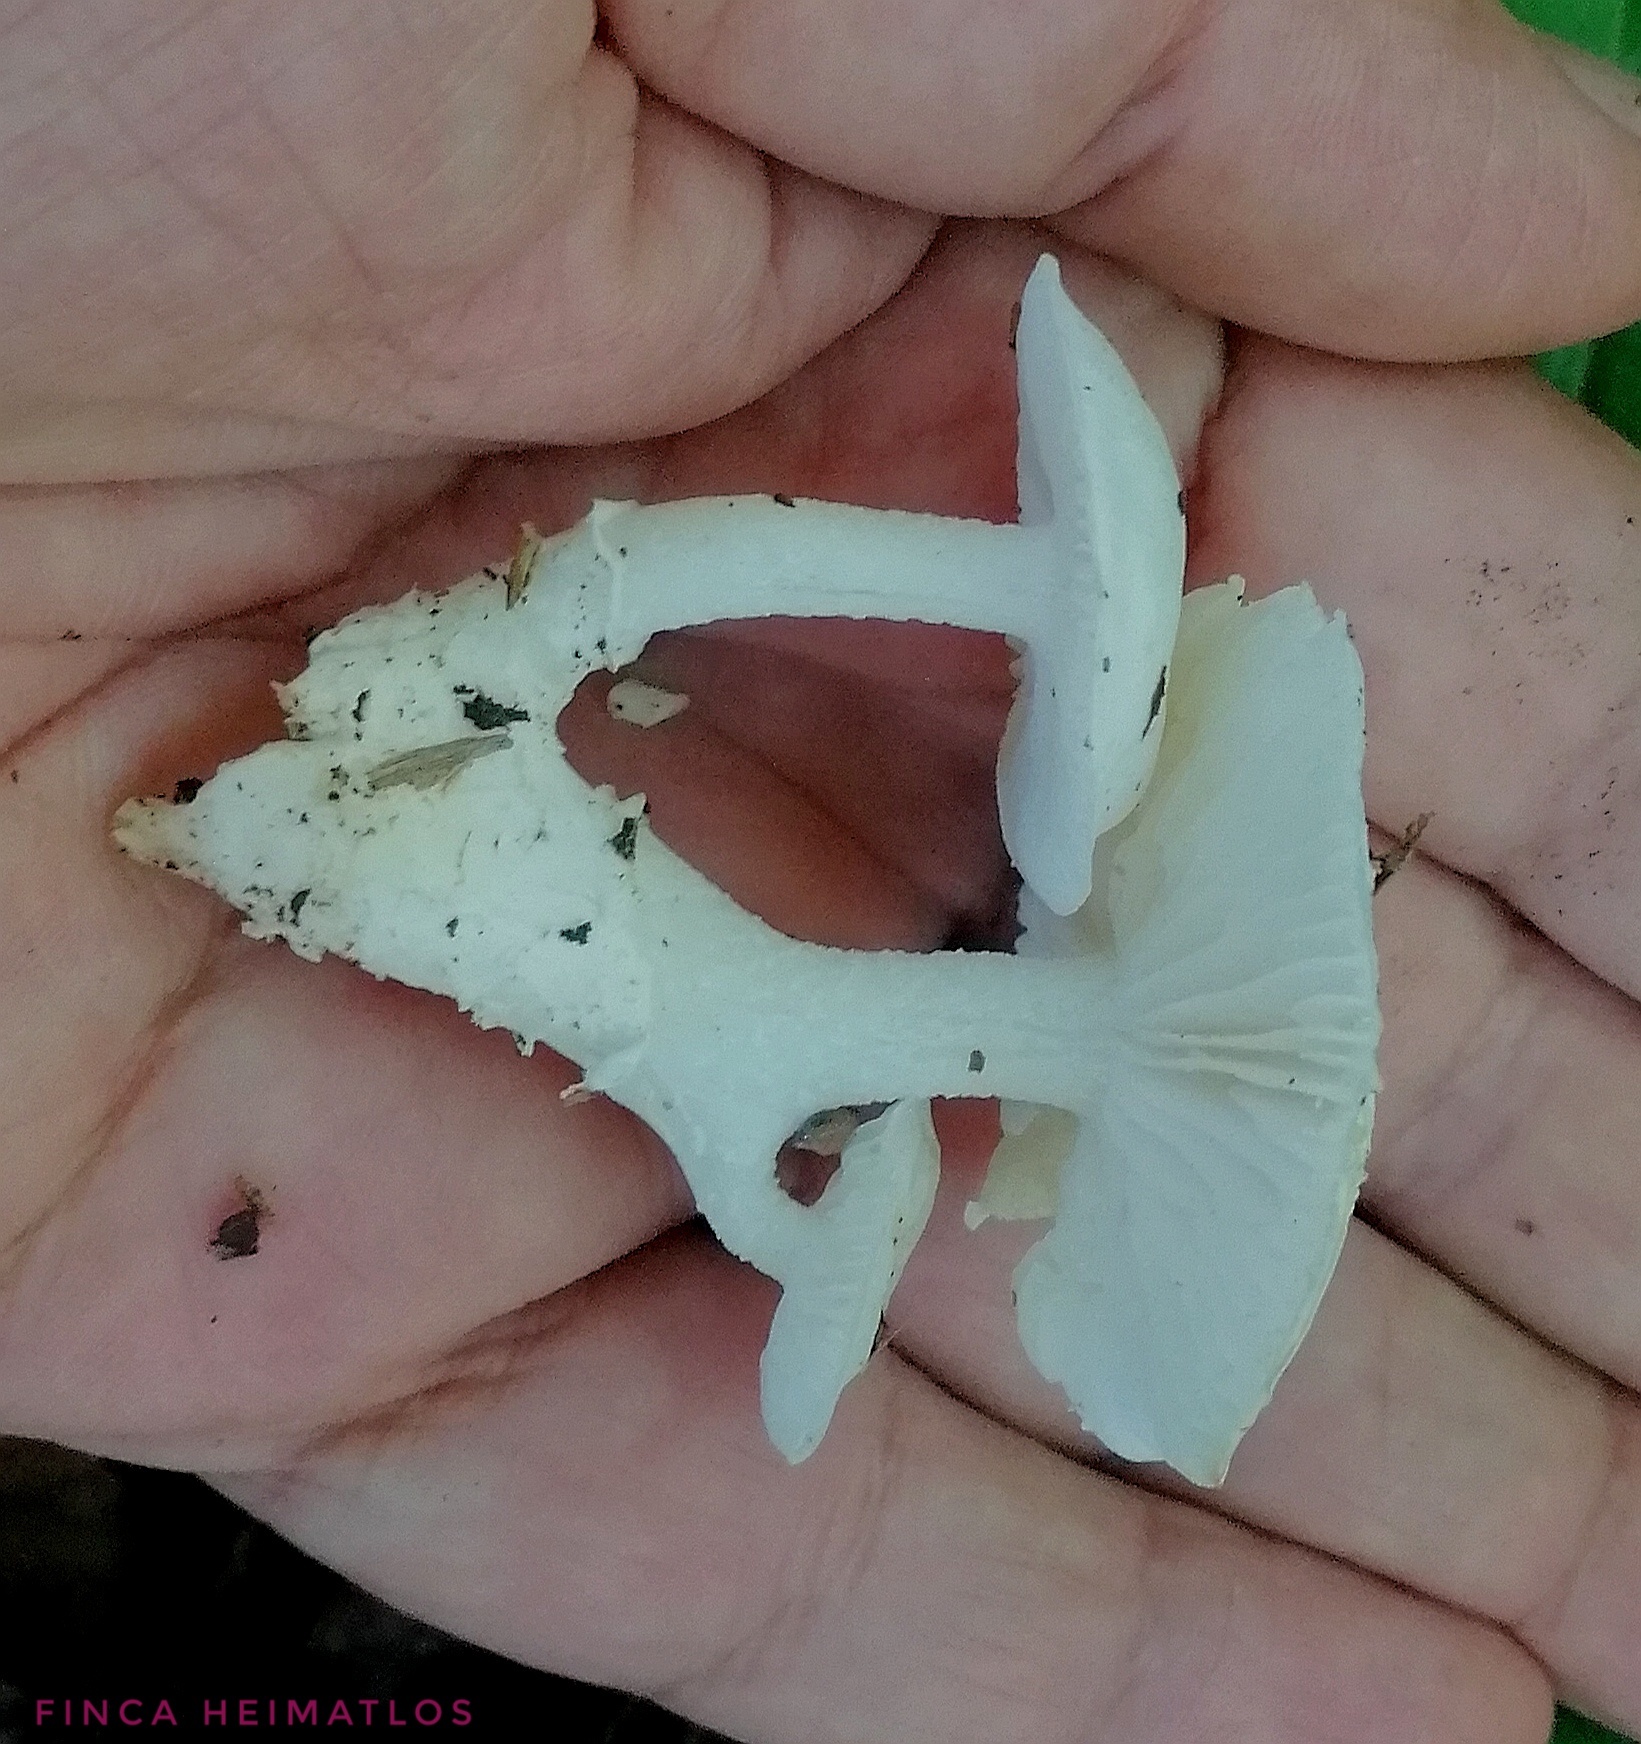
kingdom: Fungi
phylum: Basidiomycota
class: Agaricomycetes
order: Agaricales
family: Tricholomataceae
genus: Albomagister
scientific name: Albomagister subaustralis
